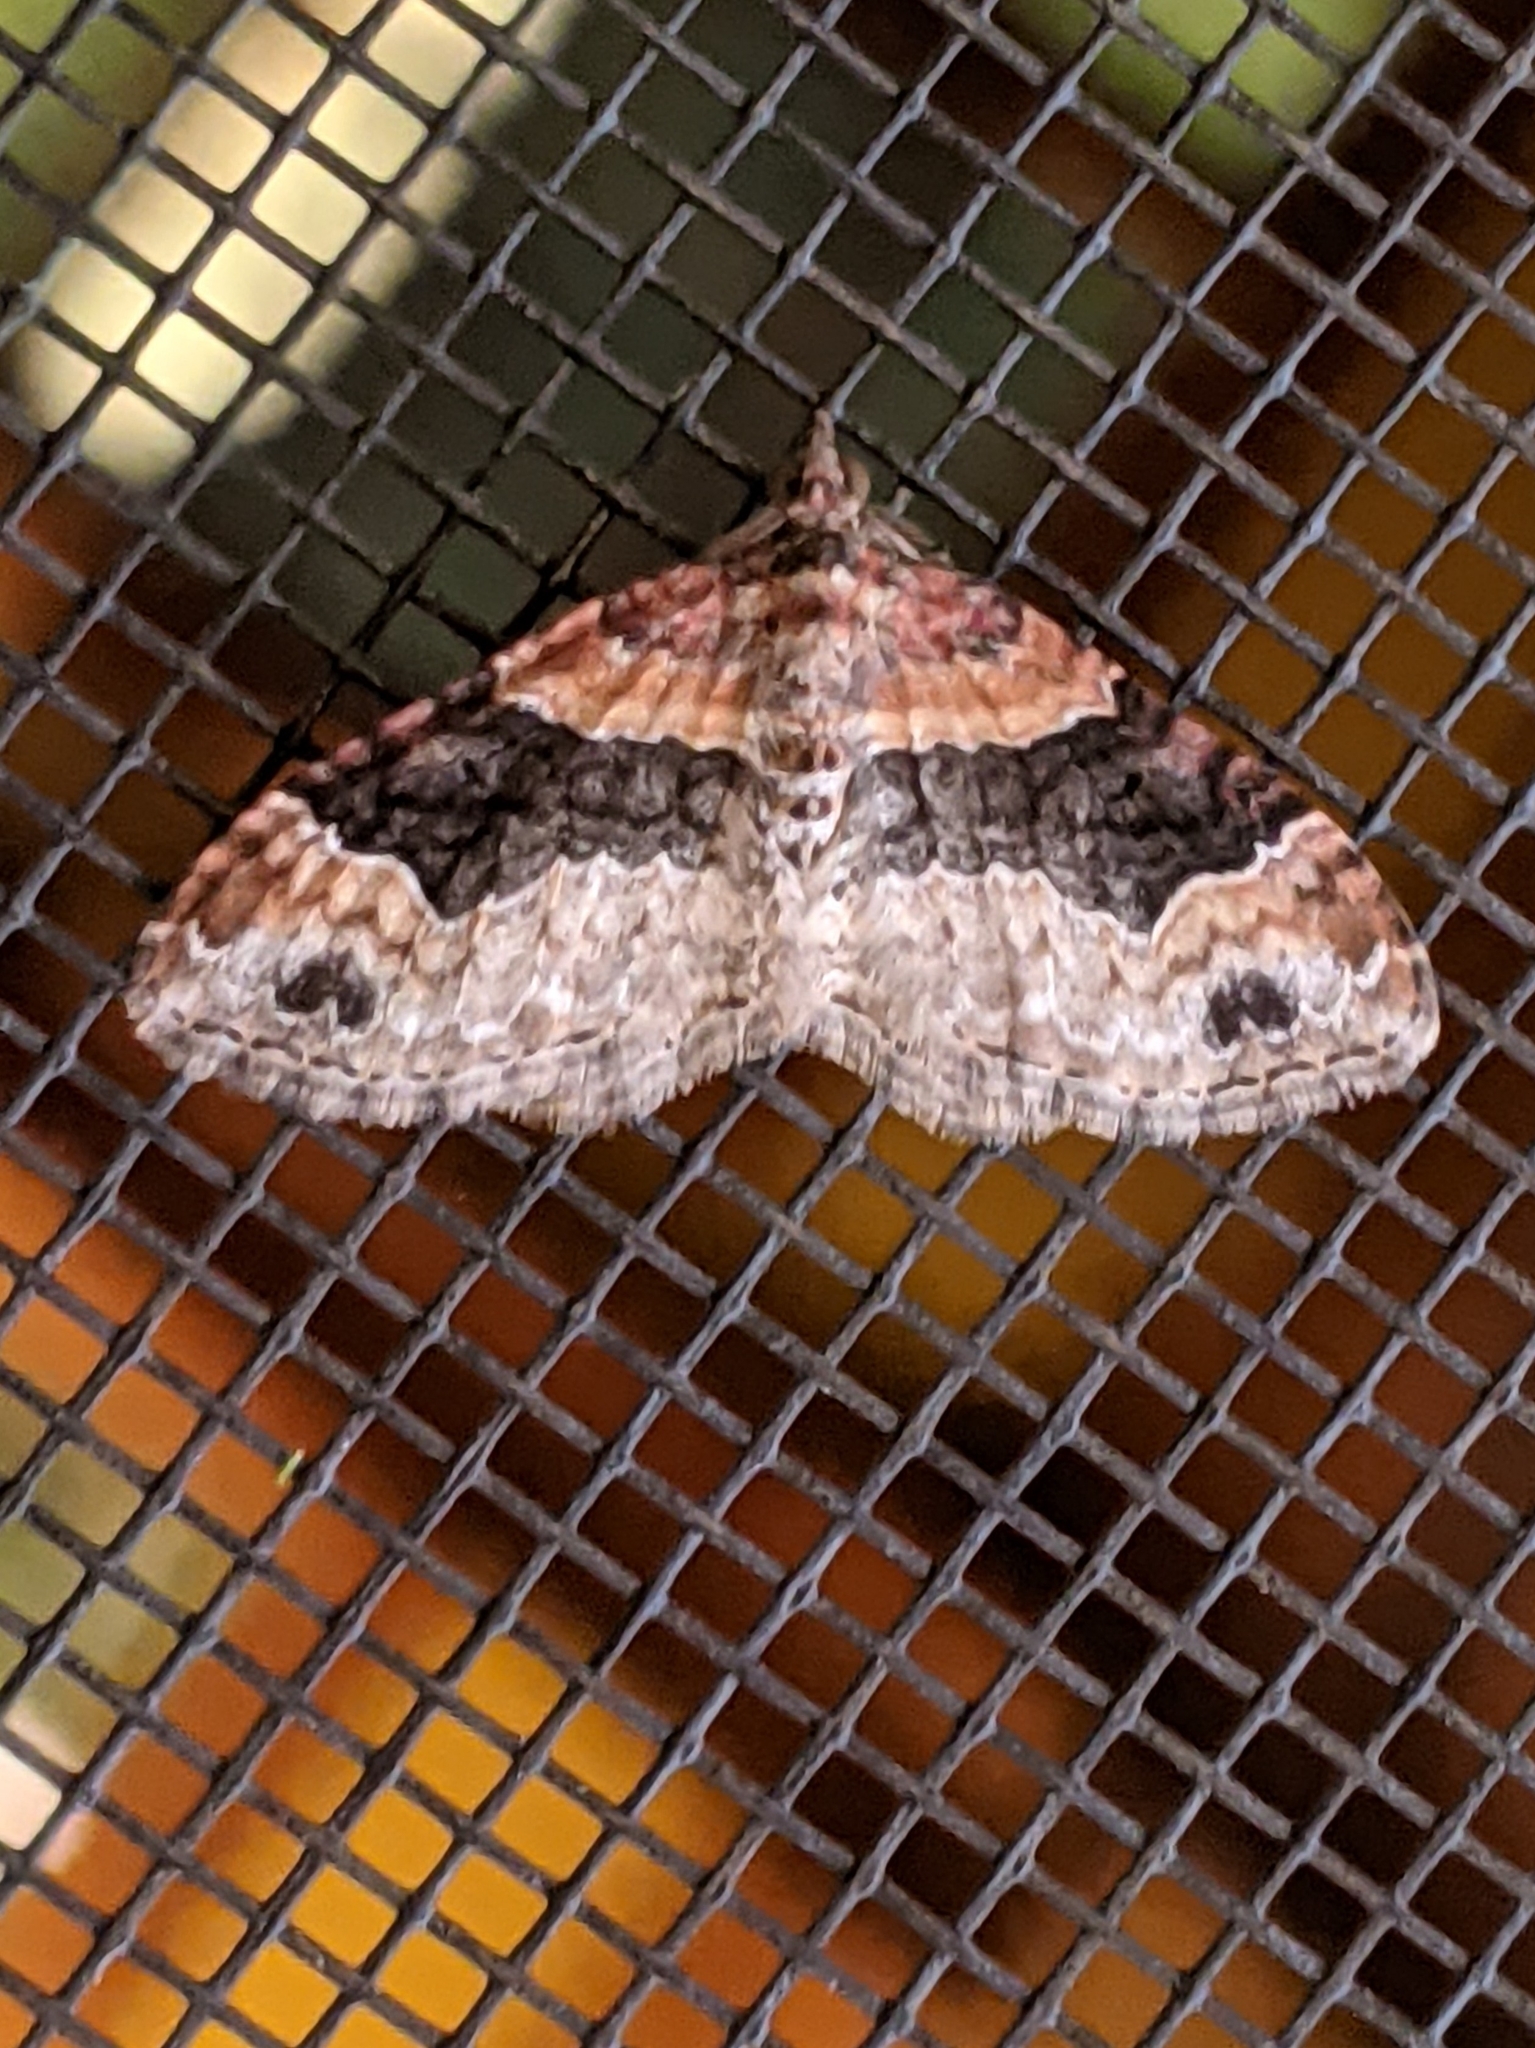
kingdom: Animalia
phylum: Arthropoda
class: Insecta
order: Lepidoptera
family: Geometridae
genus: Xanthorhoe
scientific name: Xanthorhoe ferrugata
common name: Dark-barred twin-spot carpet
